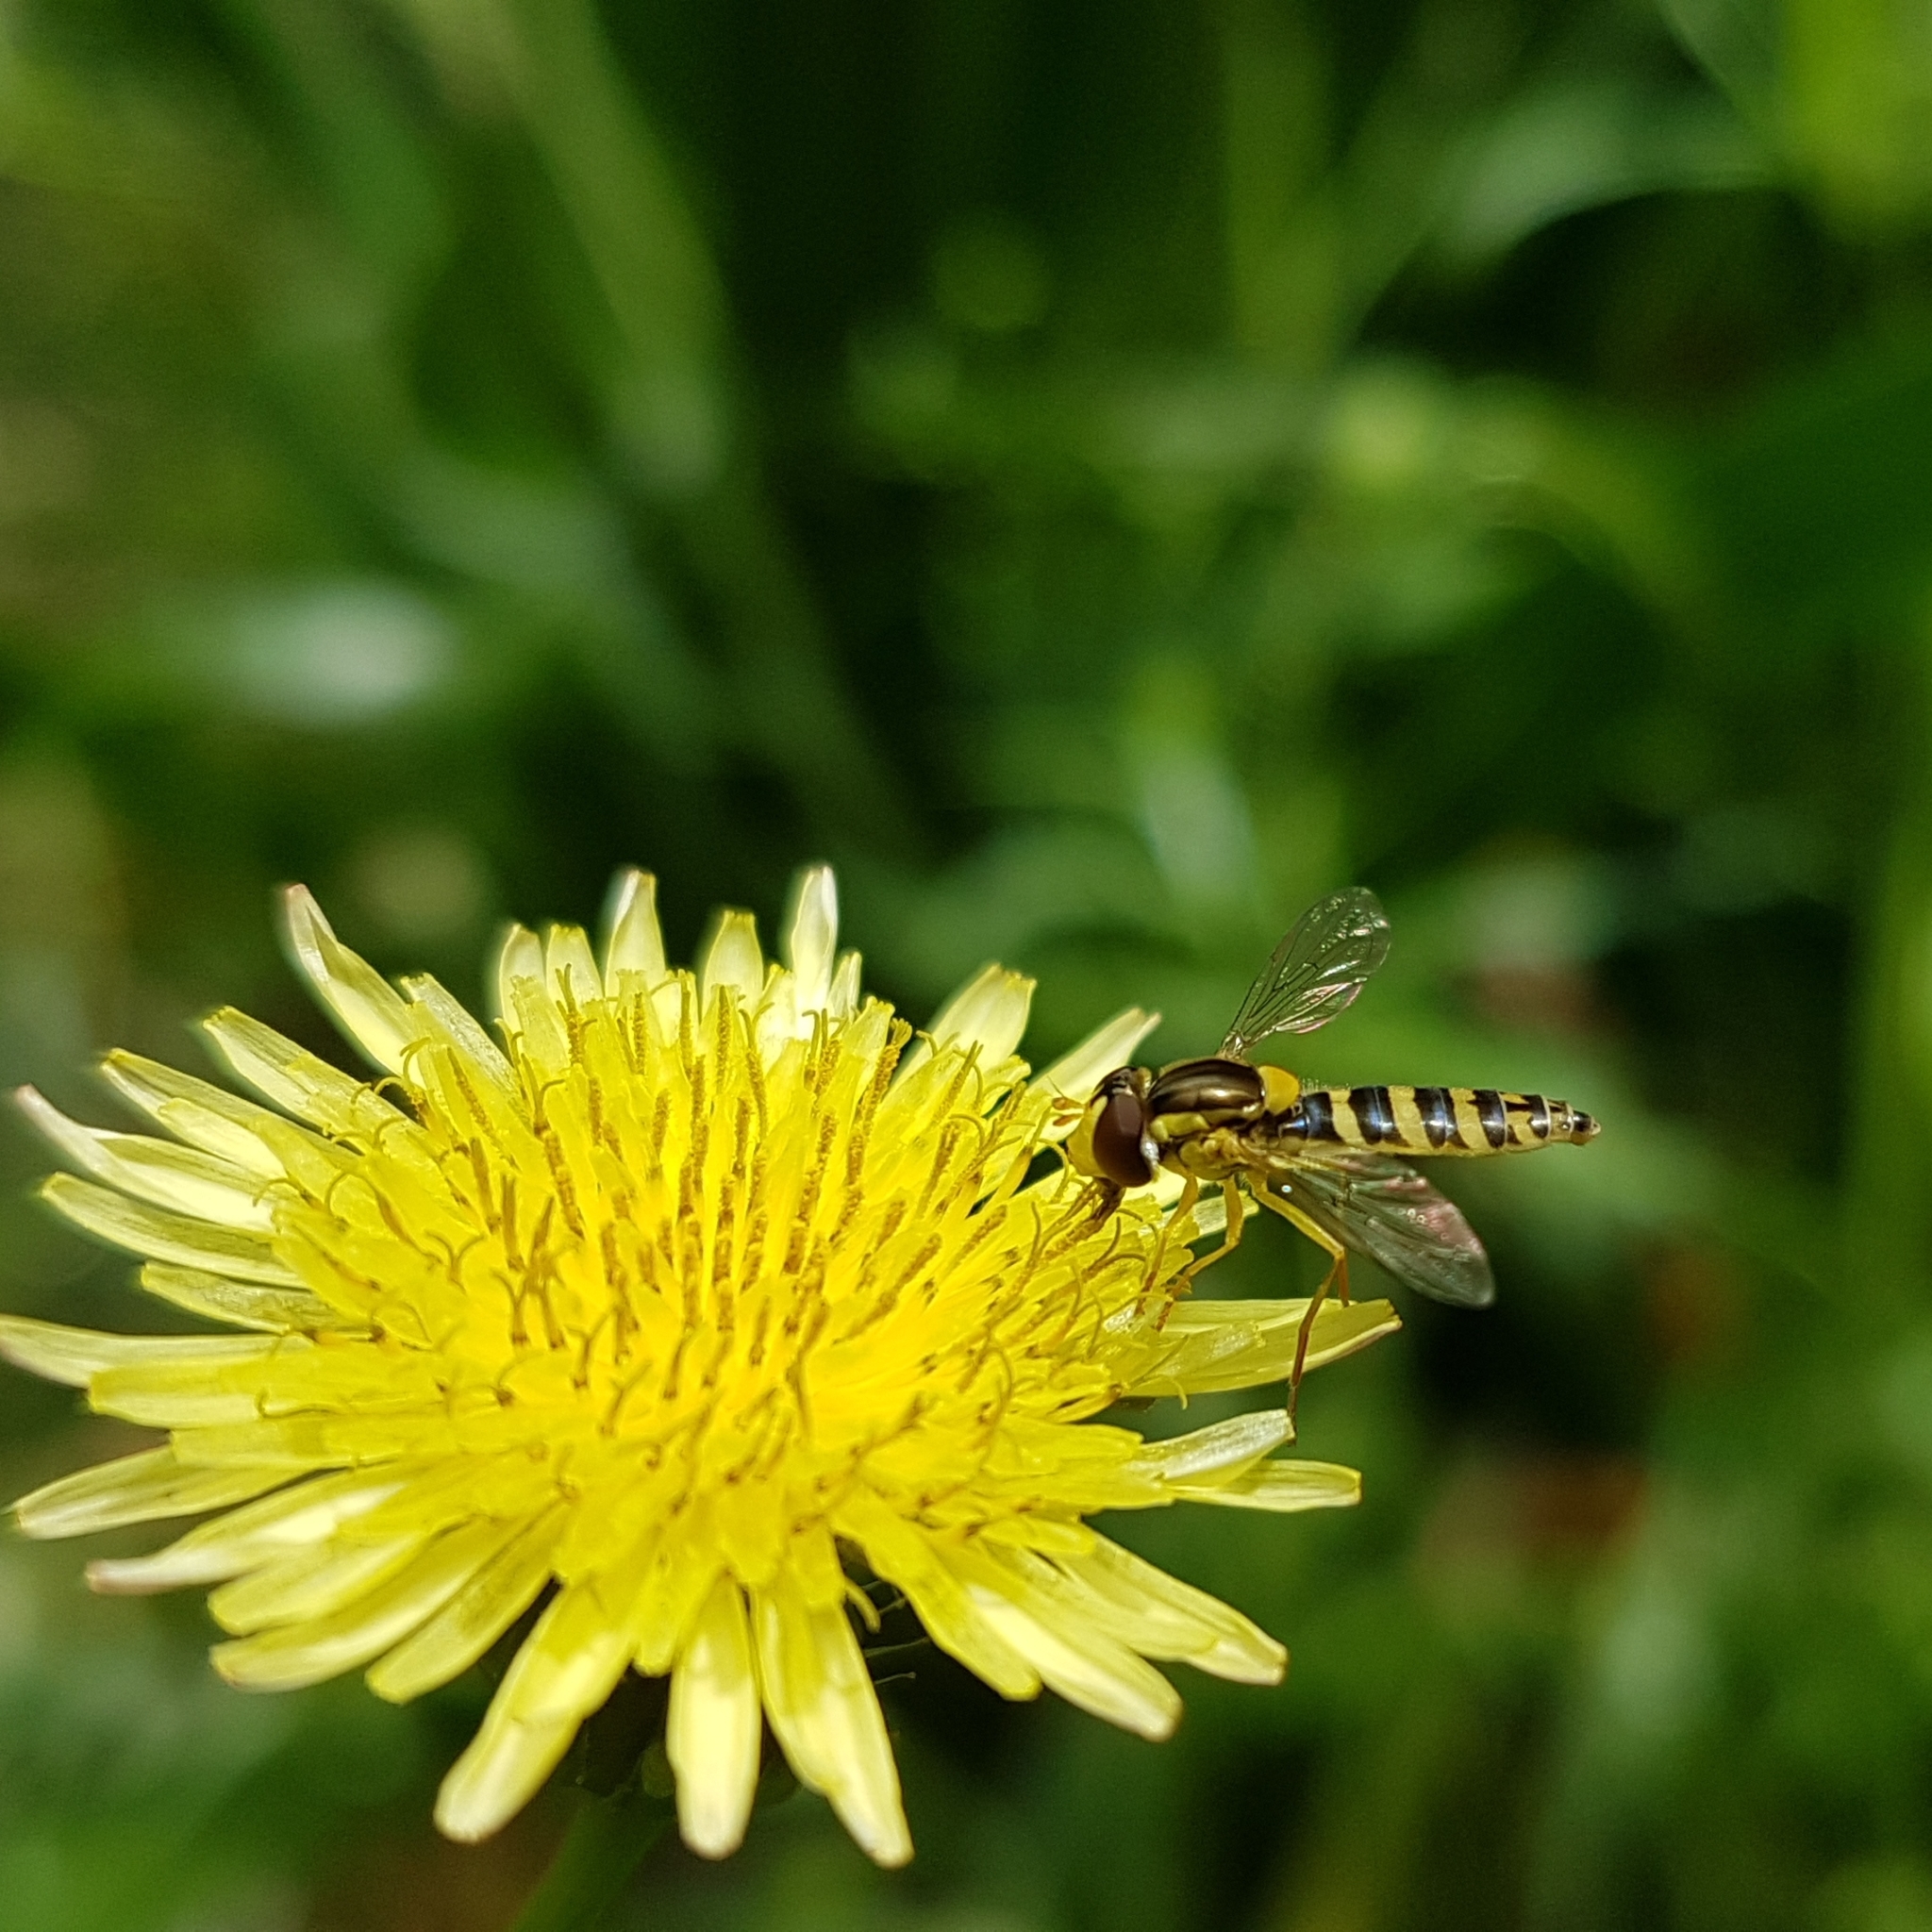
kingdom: Animalia
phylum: Arthropoda
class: Insecta
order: Diptera
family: Syrphidae
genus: Sphaerophoria
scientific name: Sphaerophoria
